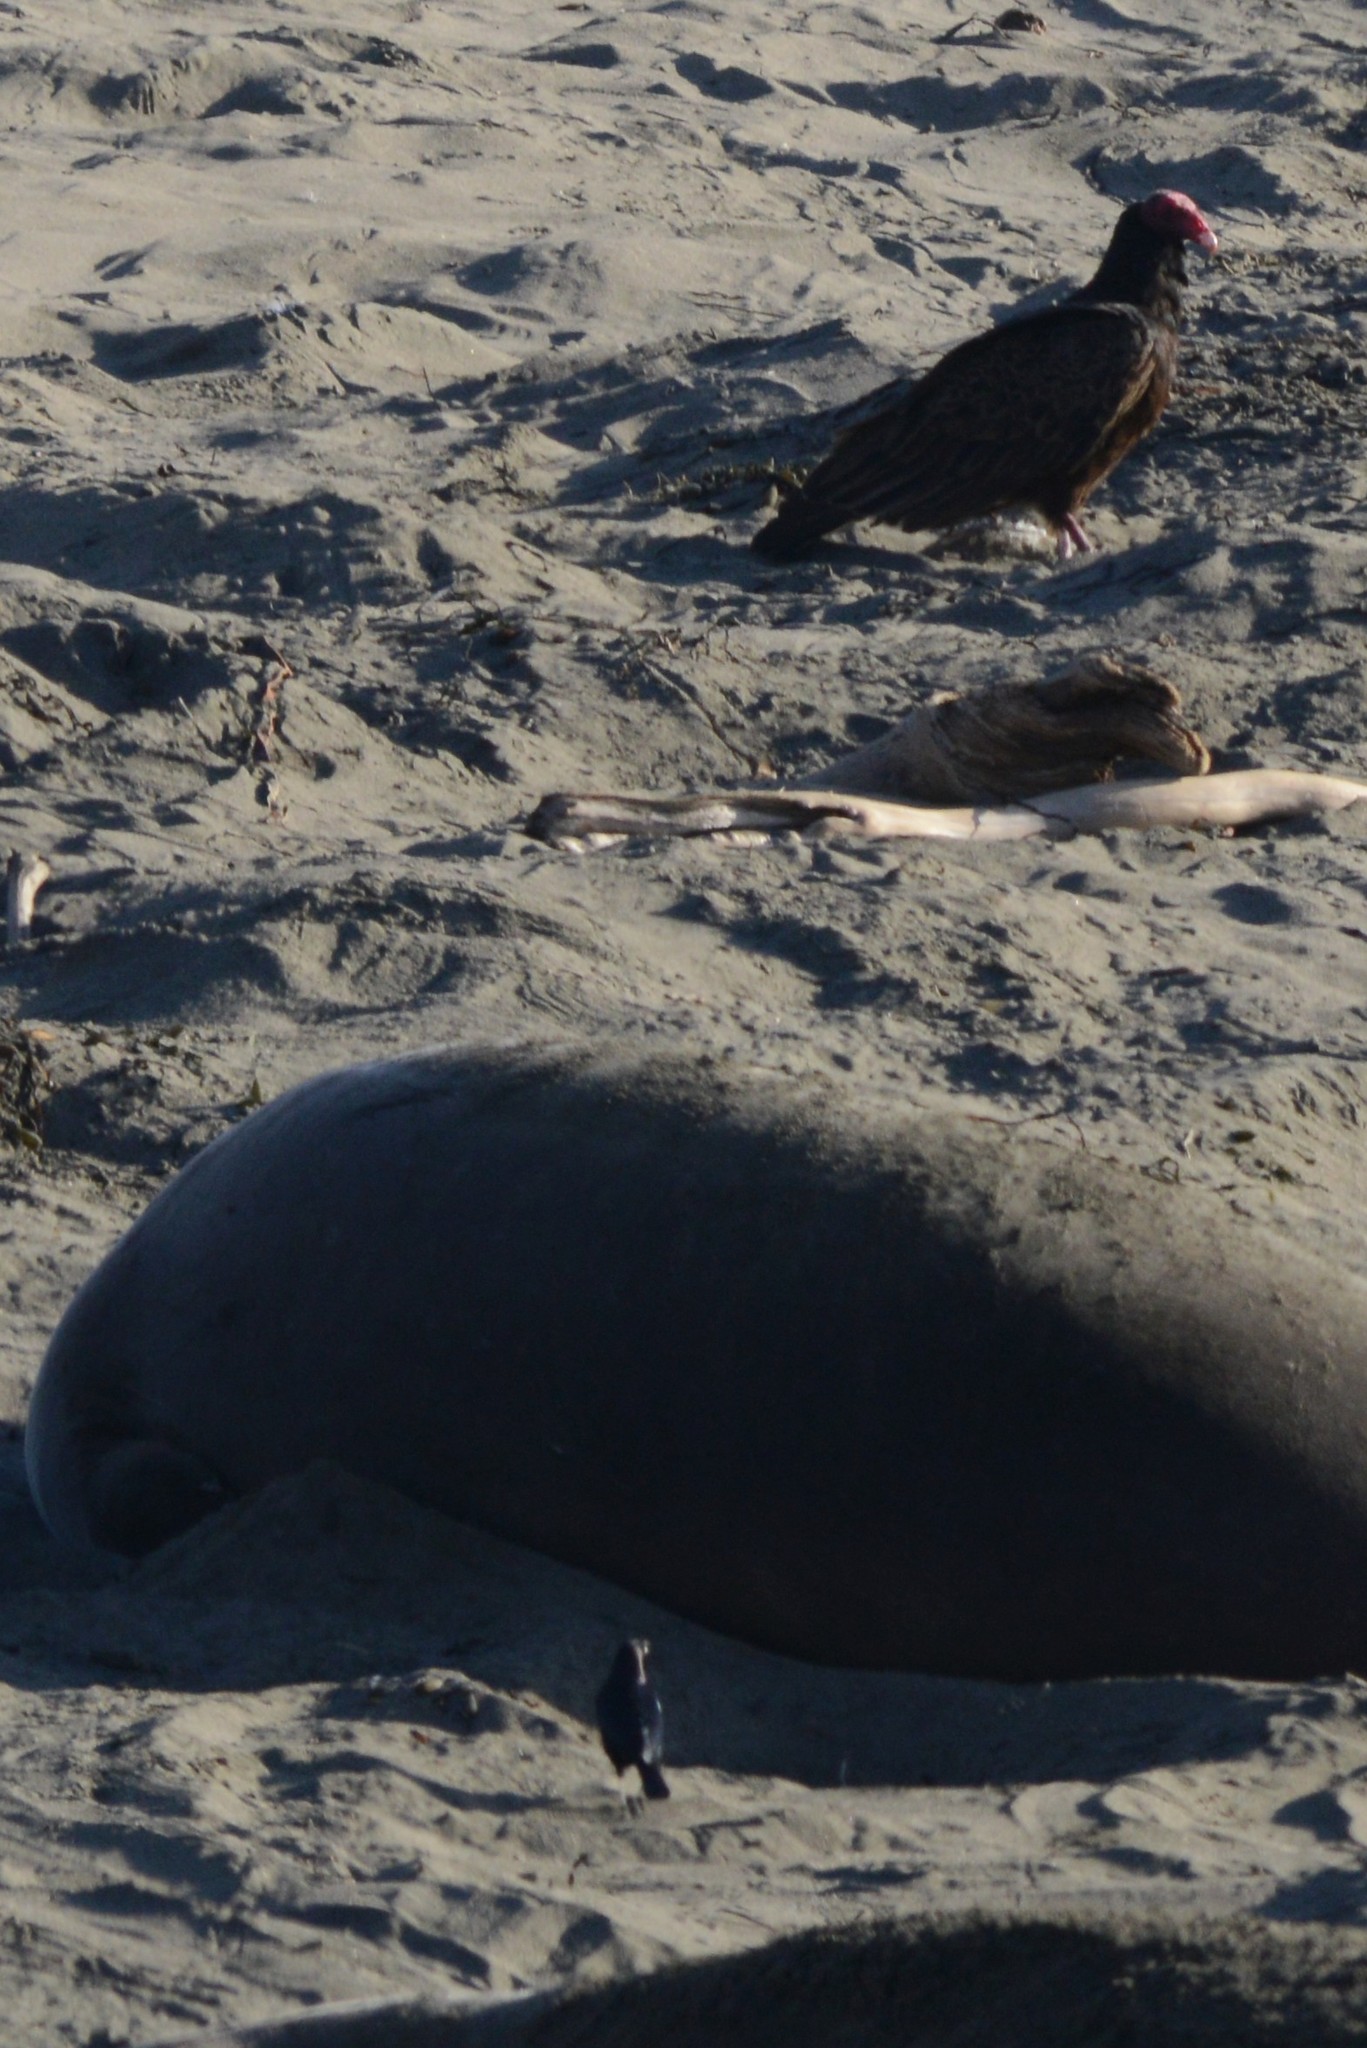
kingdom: Animalia
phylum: Chordata
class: Aves
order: Accipitriformes
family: Cathartidae
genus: Cathartes
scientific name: Cathartes aura
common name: Turkey vulture
